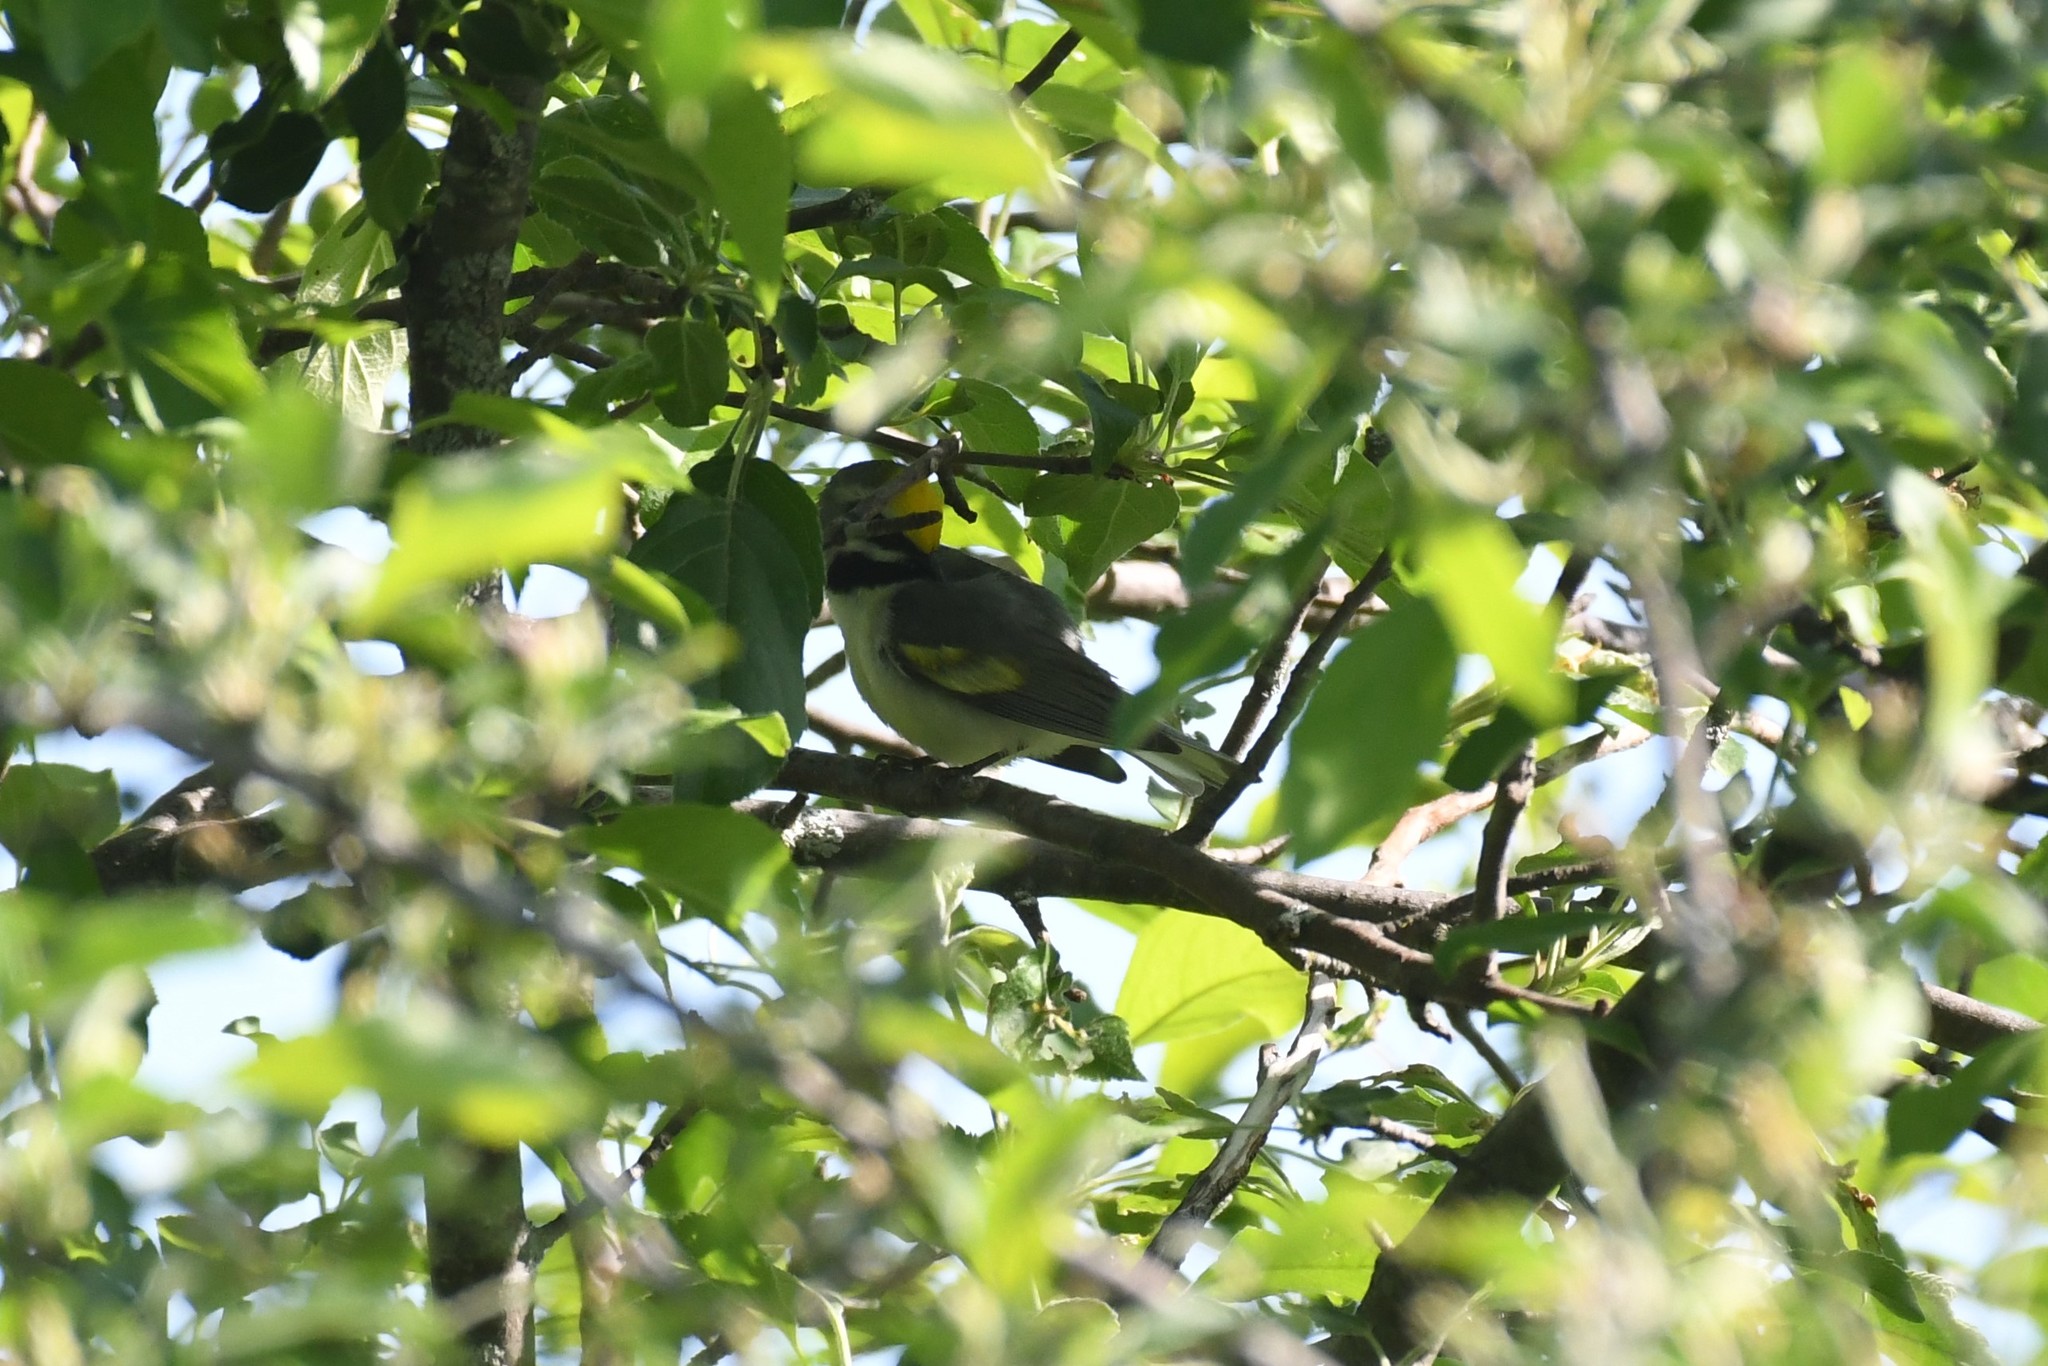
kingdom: Animalia
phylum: Chordata
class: Aves
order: Passeriformes
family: Parulidae
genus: Vermivora
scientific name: Vermivora chrysoptera
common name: Golden-winged warbler
